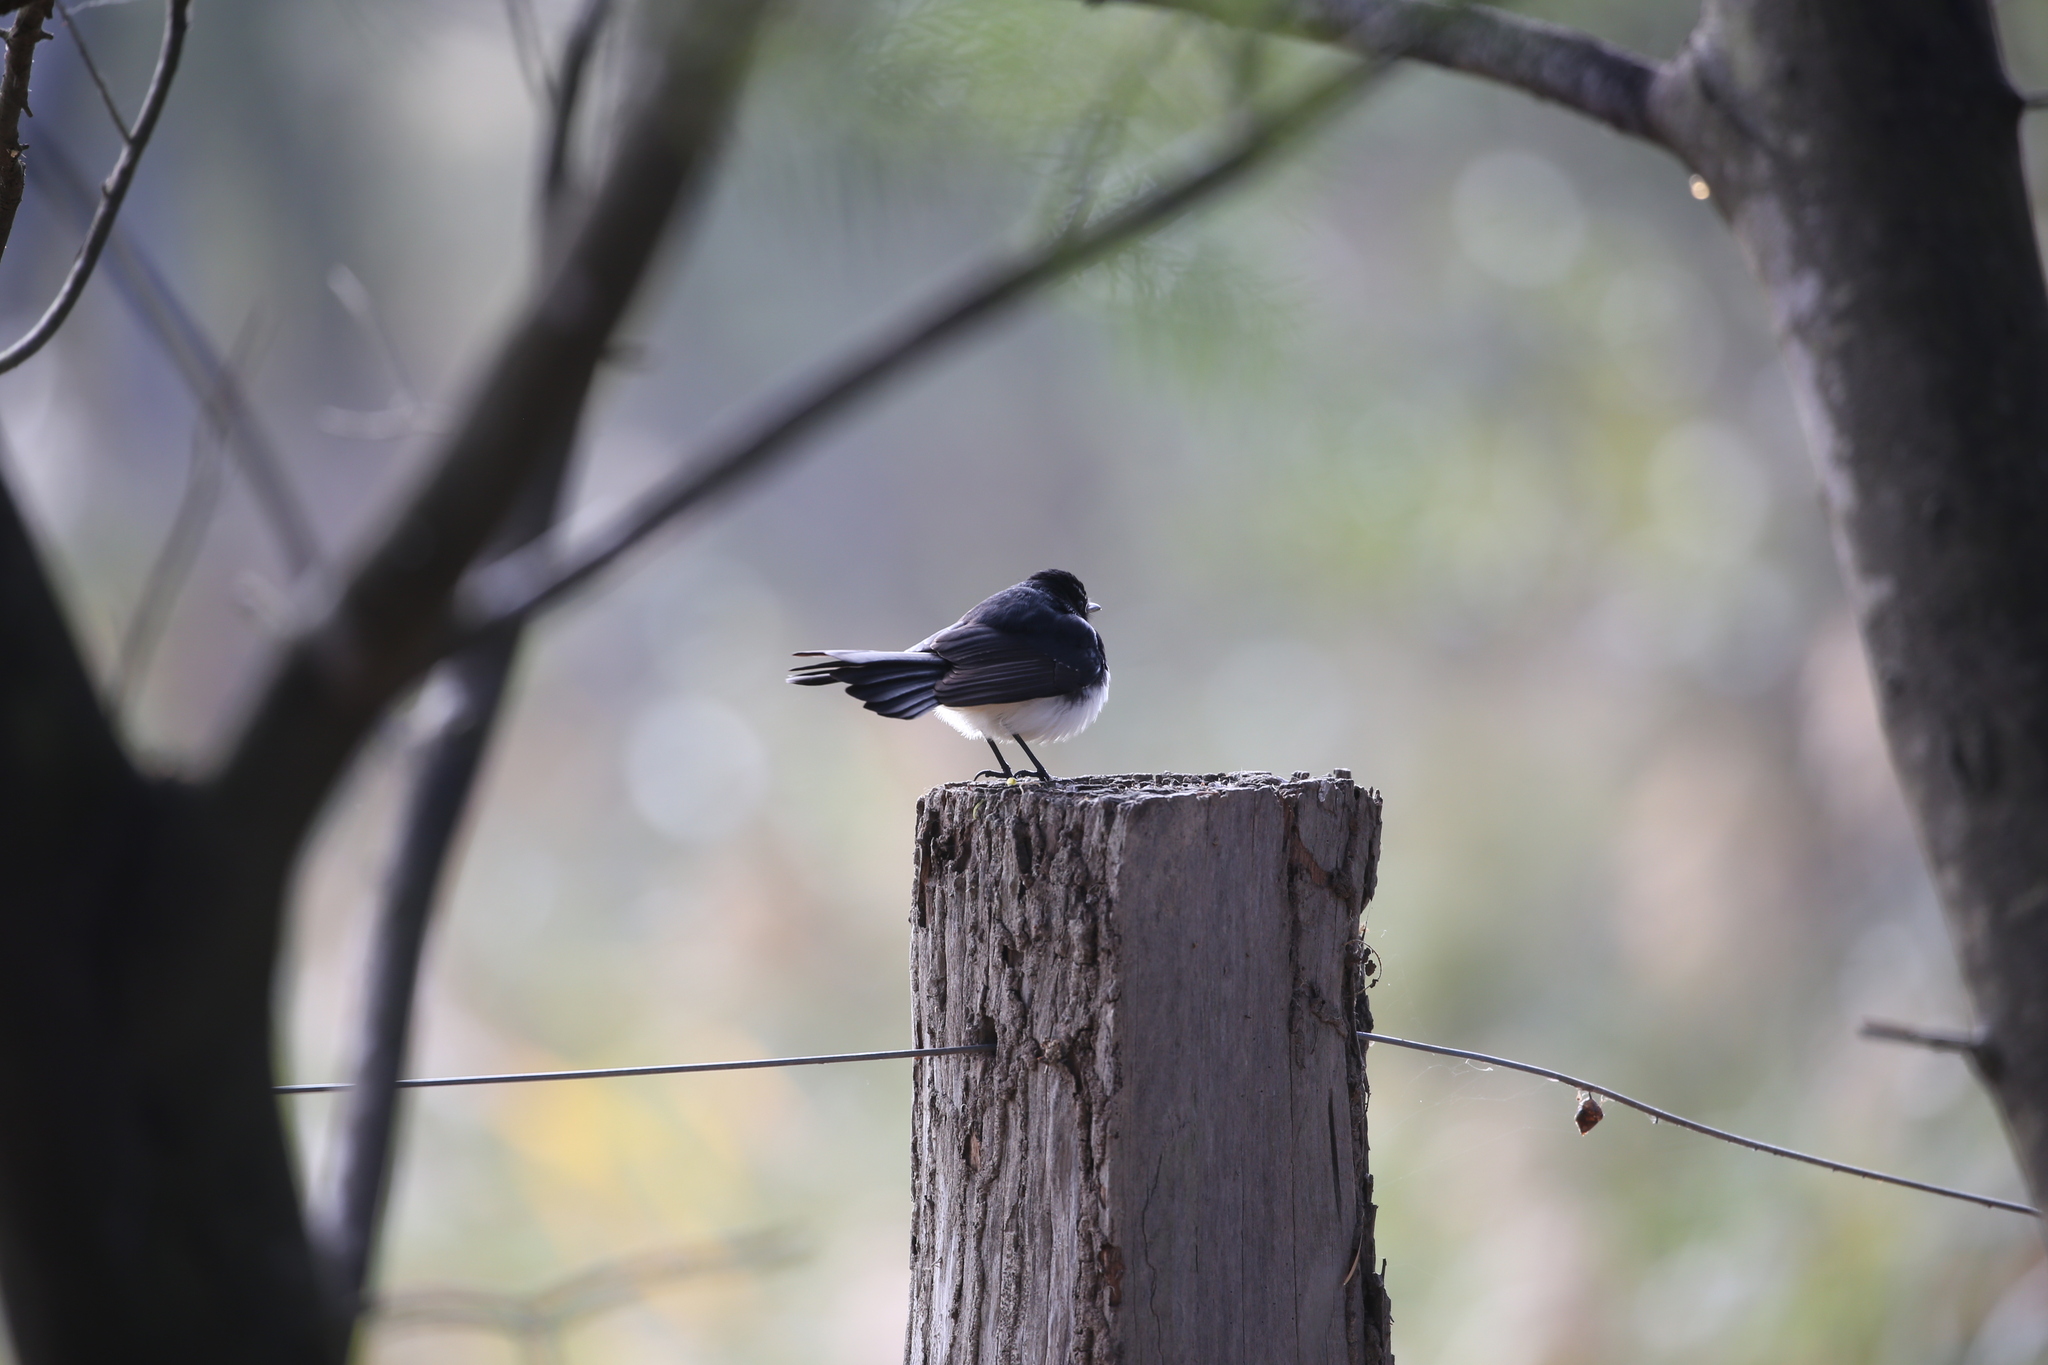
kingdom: Animalia
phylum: Chordata
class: Aves
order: Passeriformes
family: Rhipiduridae
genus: Rhipidura
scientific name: Rhipidura leucophrys
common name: Willie wagtail
